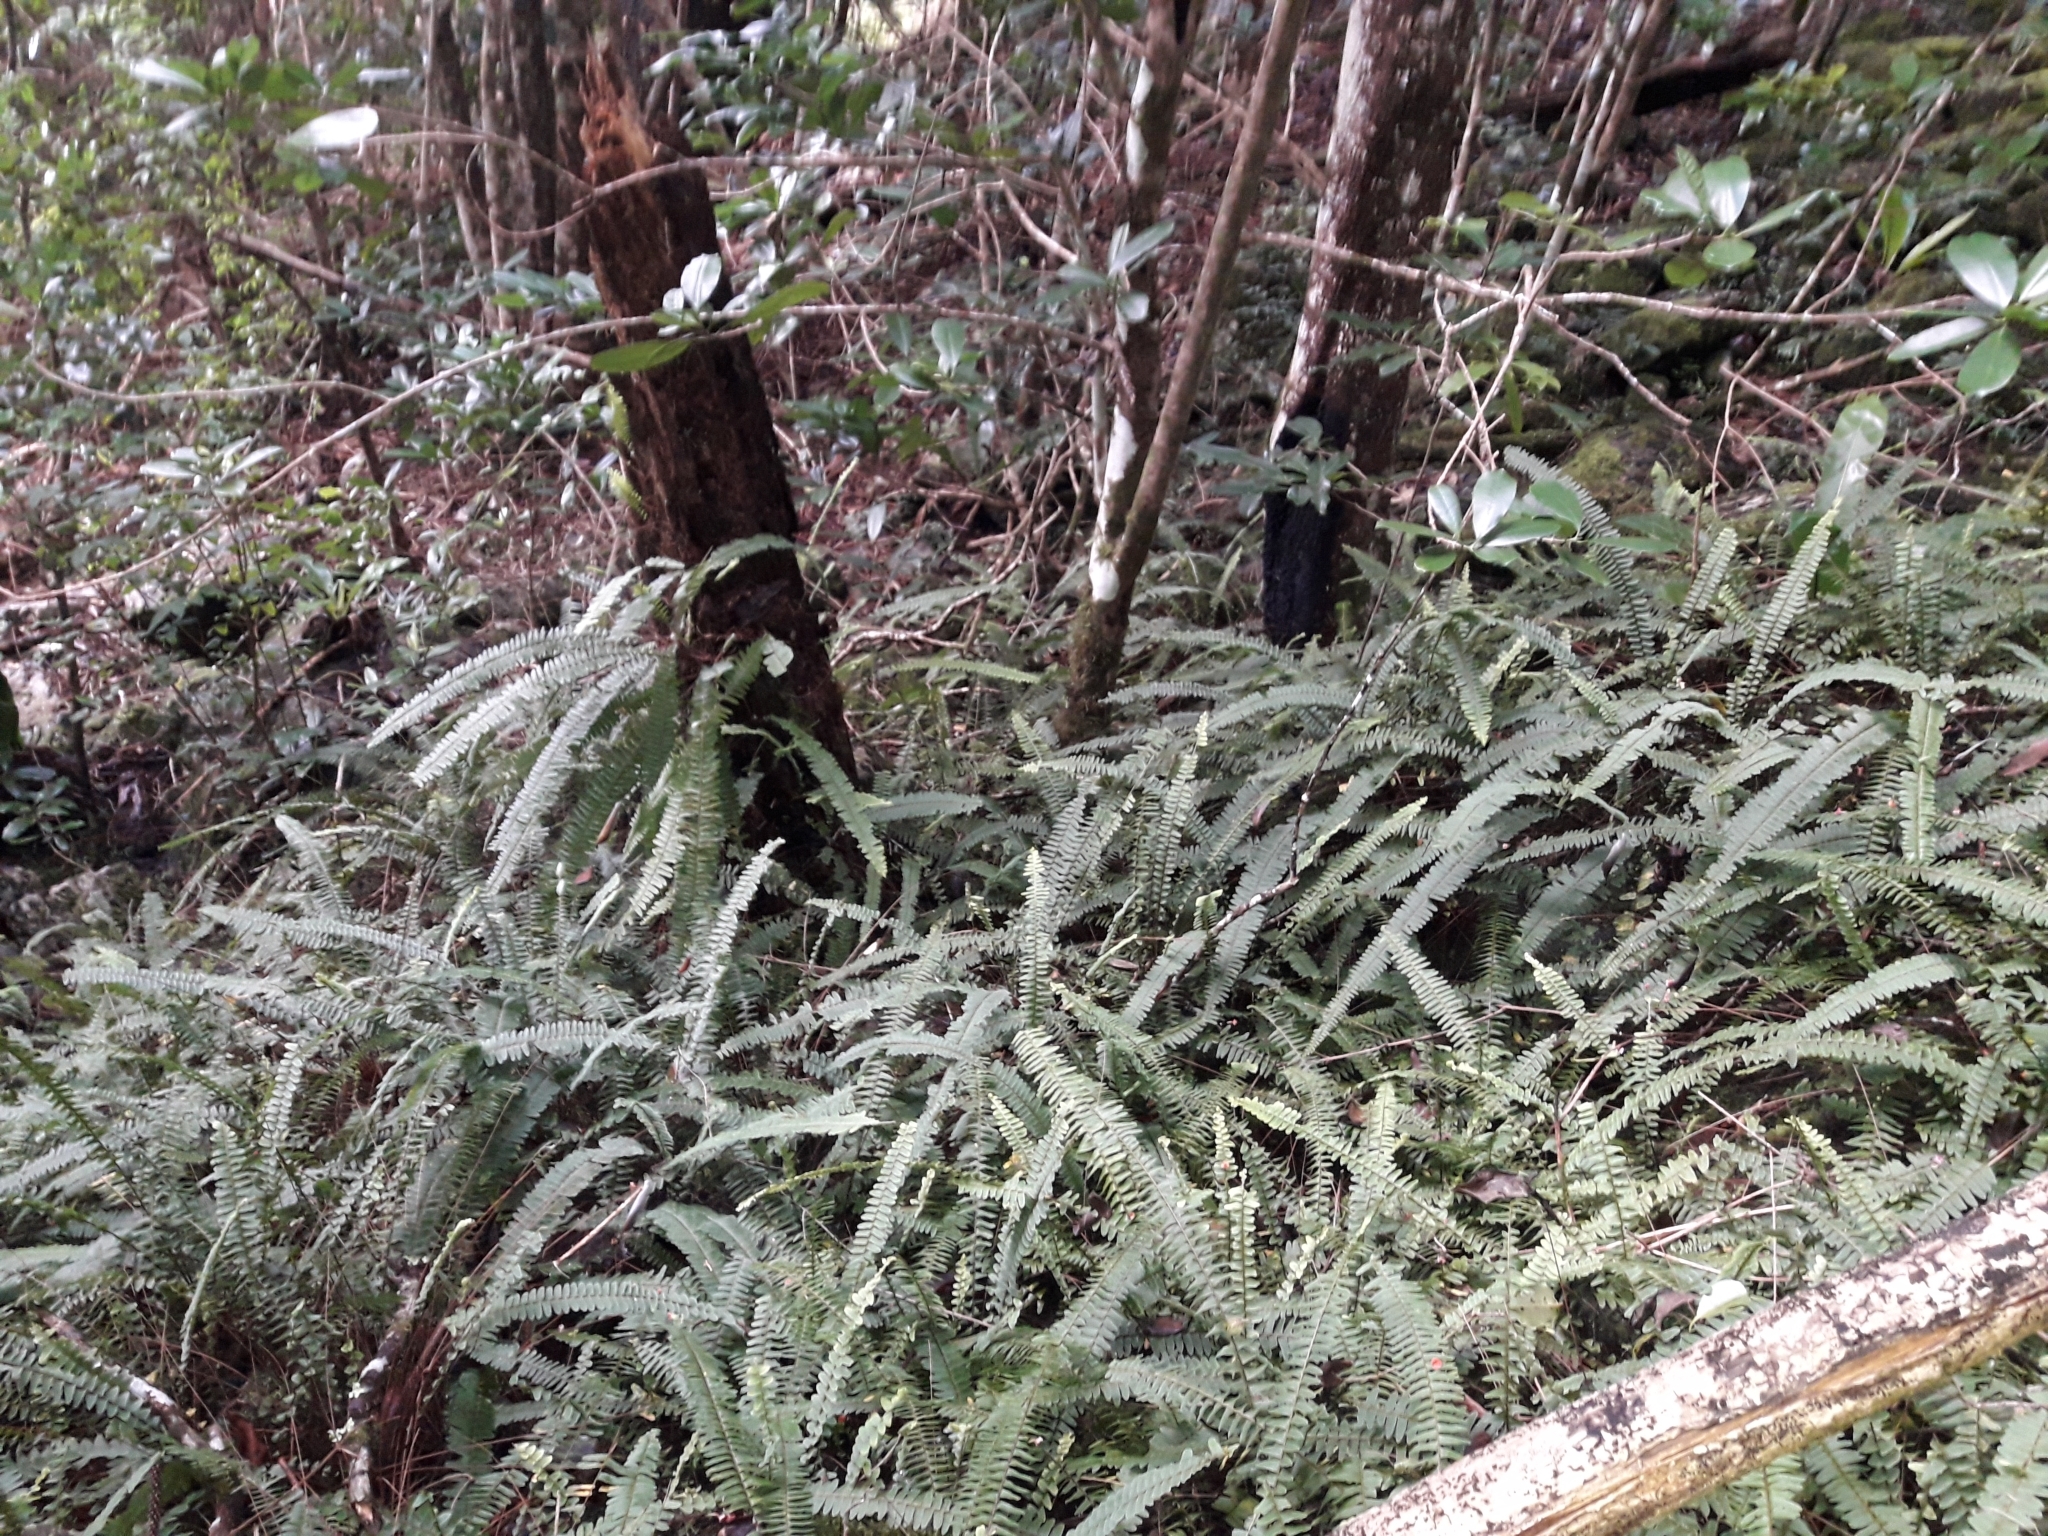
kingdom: Plantae
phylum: Tracheophyta
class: Polypodiopsida
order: Polypodiales
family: Nephrolepidaceae
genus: Nephrolepis
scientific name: Nephrolepis flexuosa
